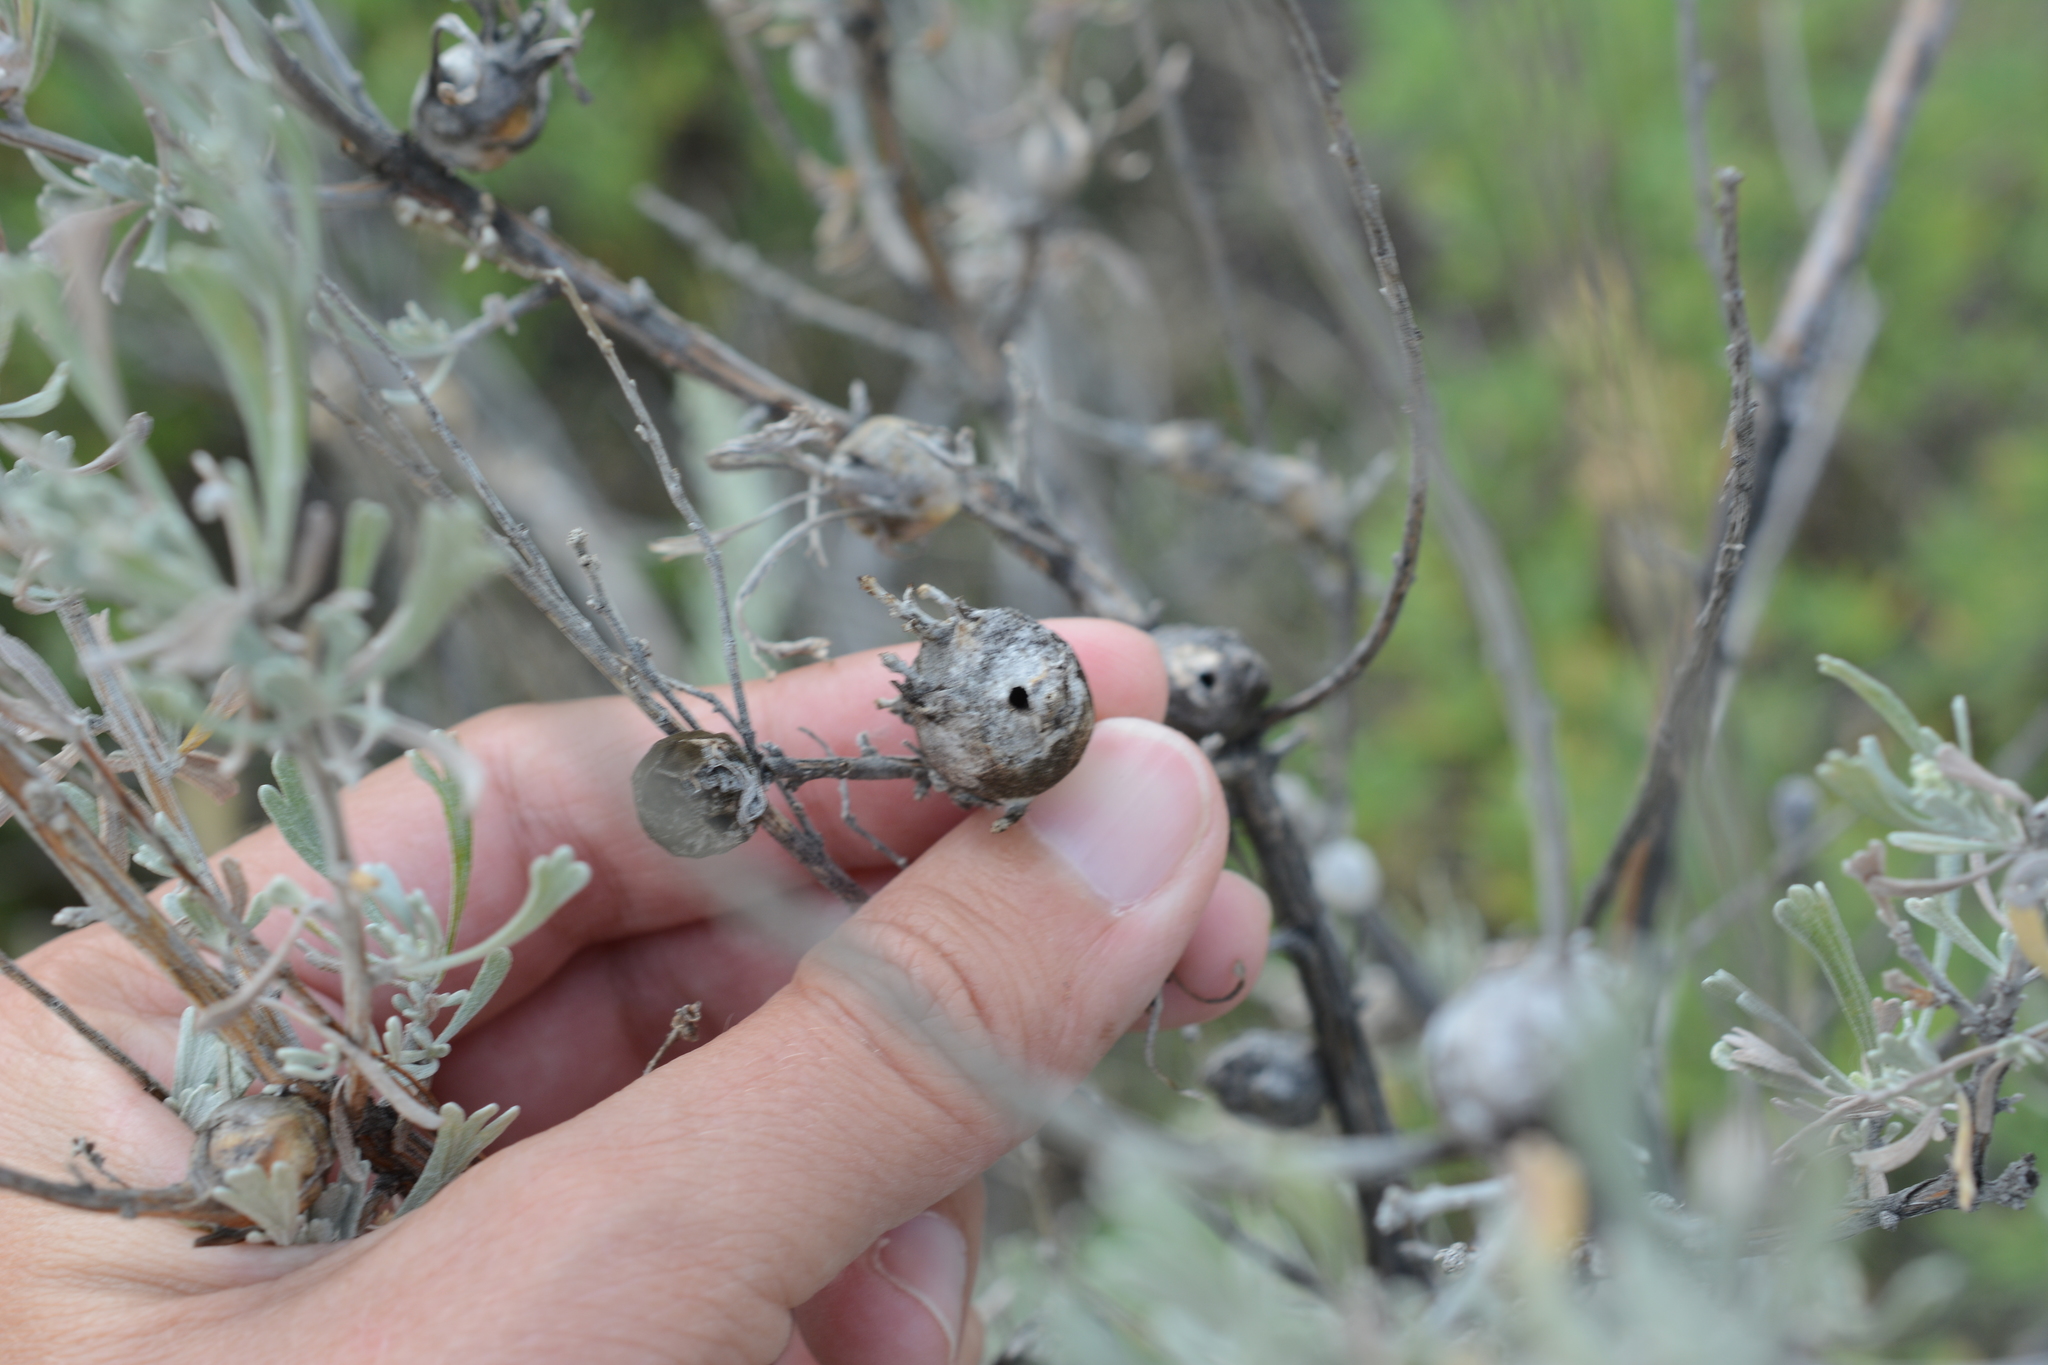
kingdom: Animalia
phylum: Arthropoda
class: Insecta
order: Diptera
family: Tephritidae
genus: Eutreta
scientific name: Eutreta diana
